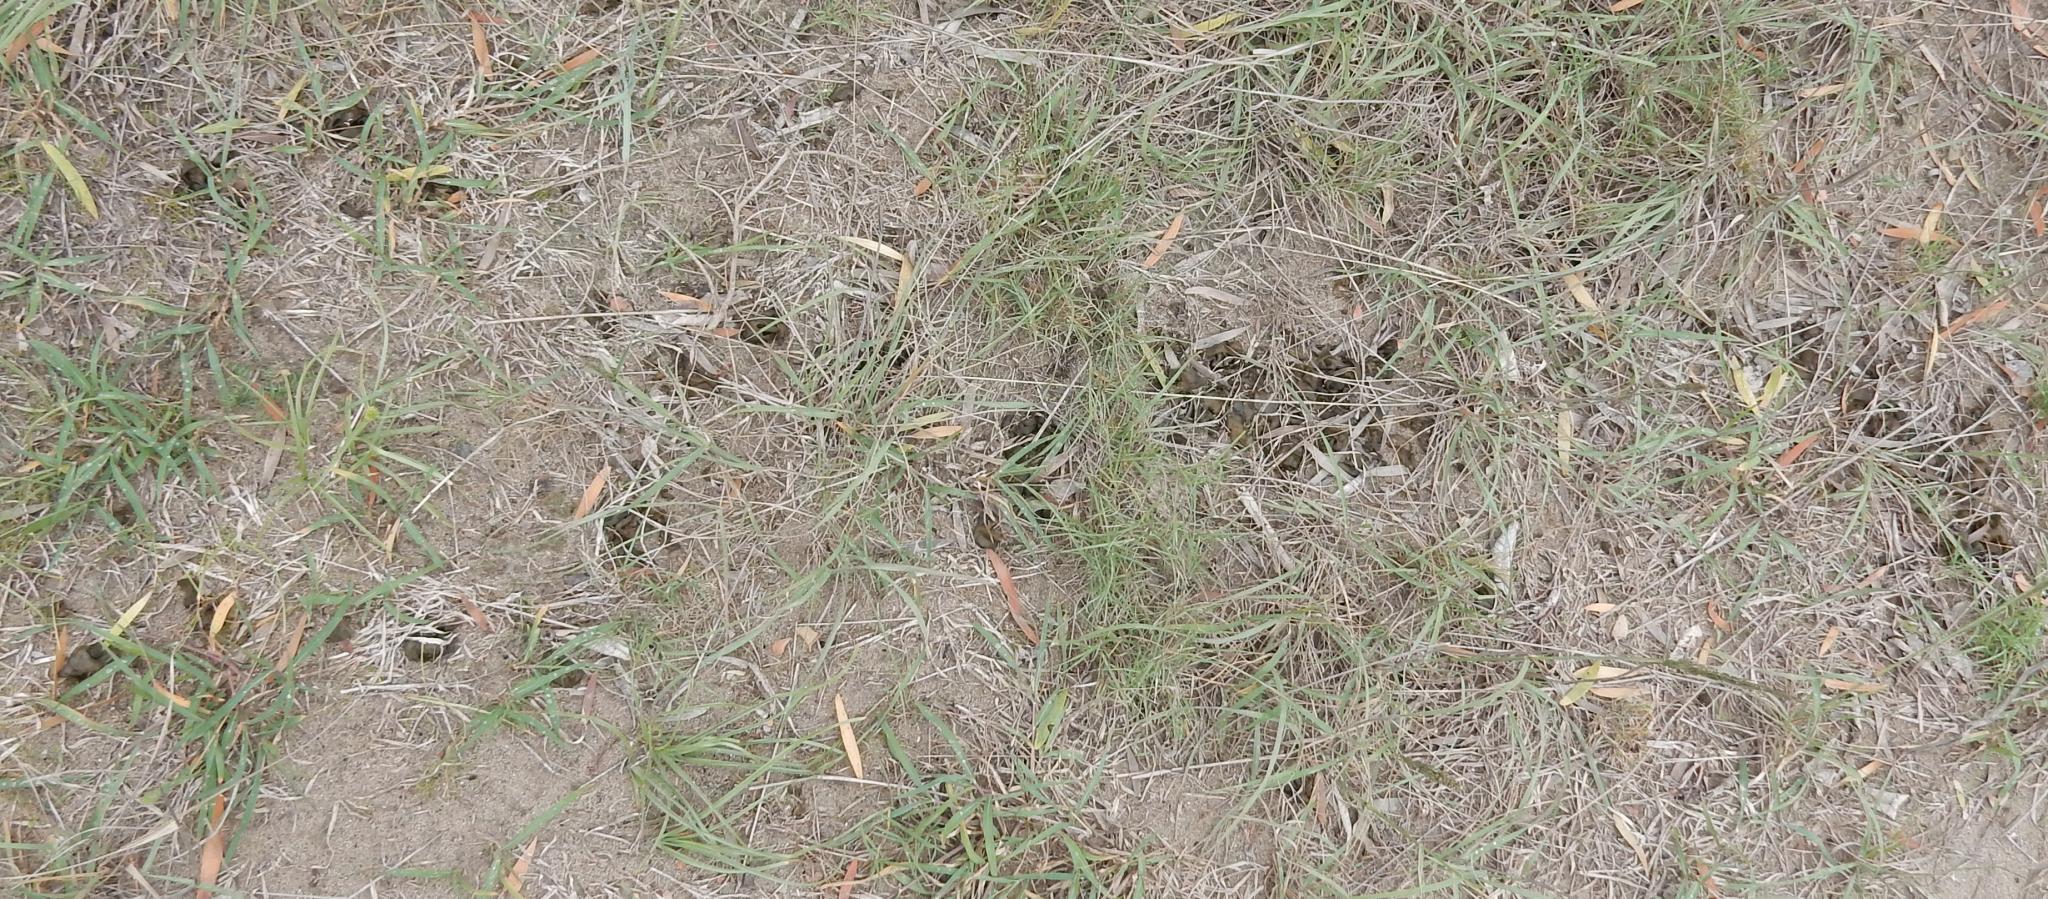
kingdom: Bacteria
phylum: Cyanobacteria
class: Cyanobacteriia
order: Cyanobacteriales
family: Nostocaceae
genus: Nostoc
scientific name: Nostoc commune
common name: Star jelly
